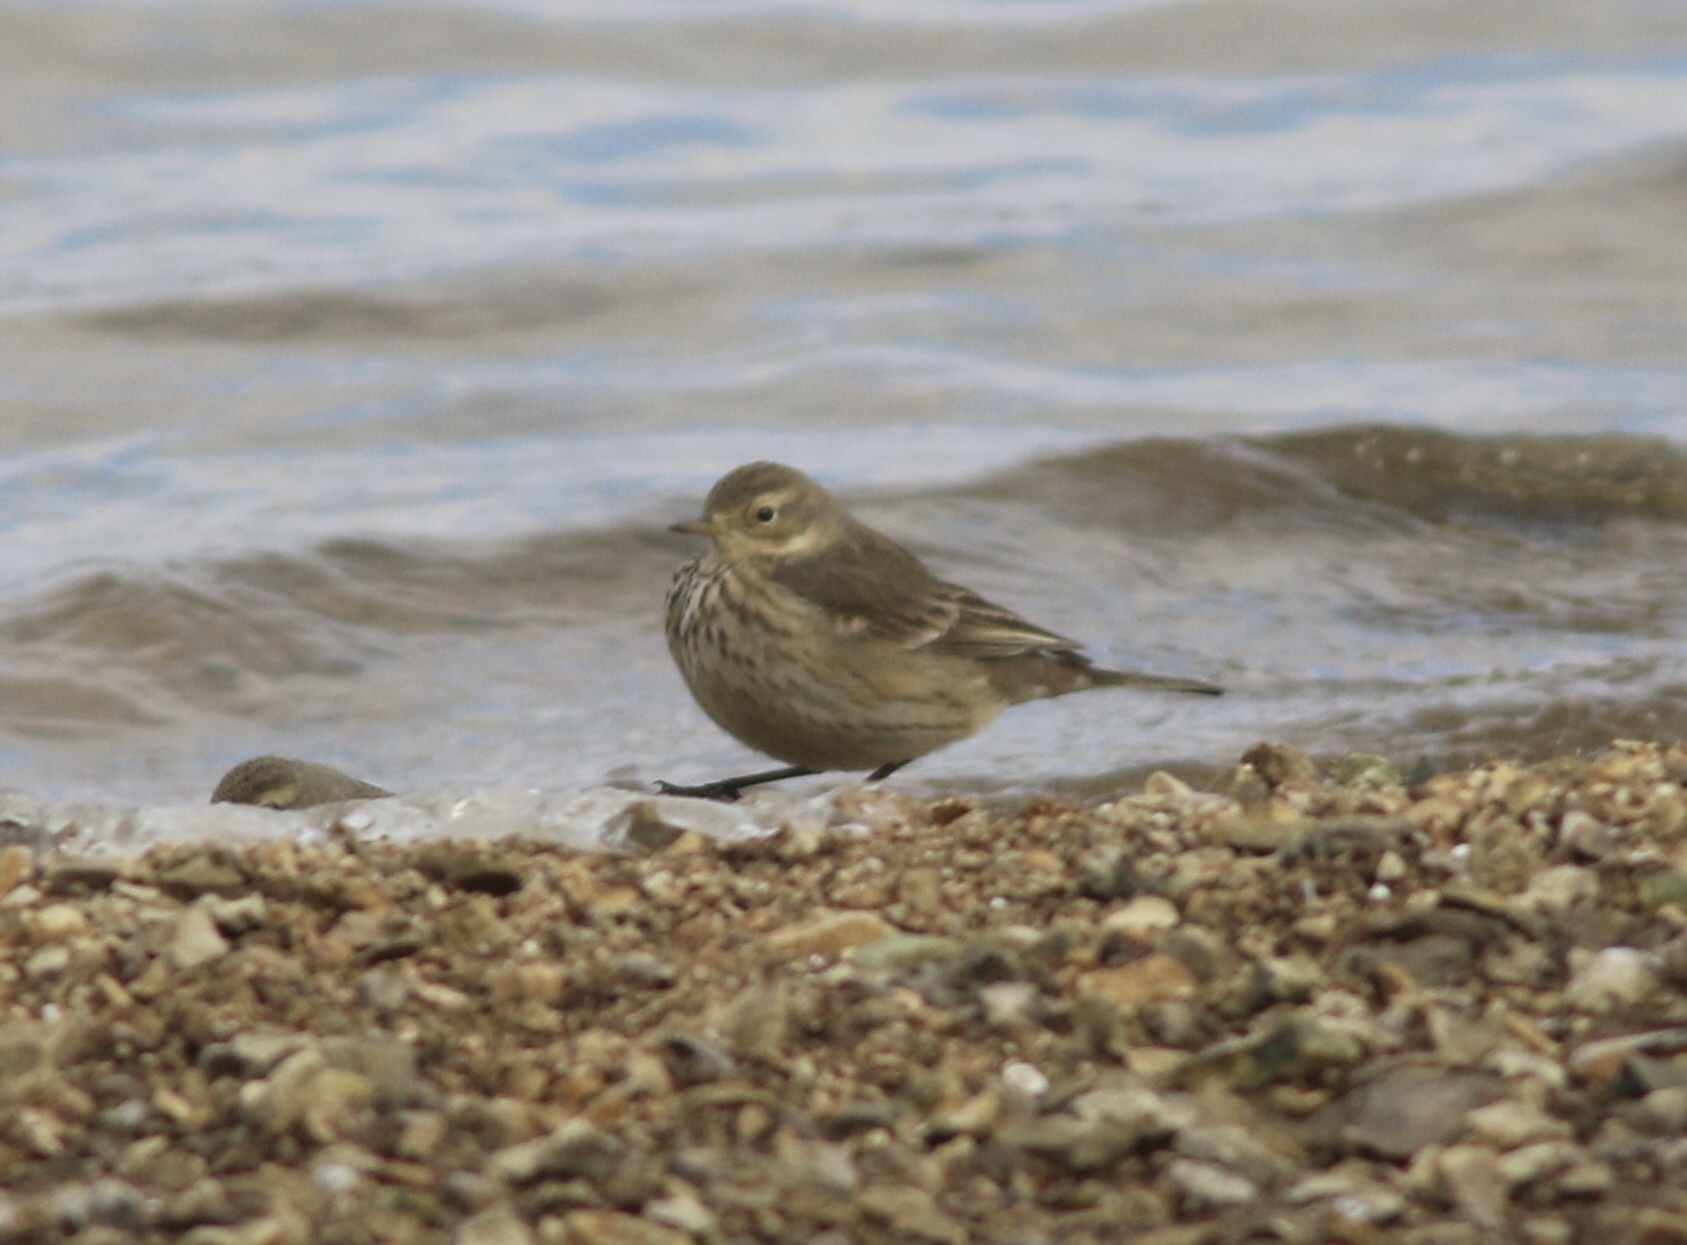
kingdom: Animalia
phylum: Chordata
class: Aves
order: Passeriformes
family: Motacillidae
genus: Anthus
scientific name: Anthus rubescens
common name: Buff-bellied pipit
